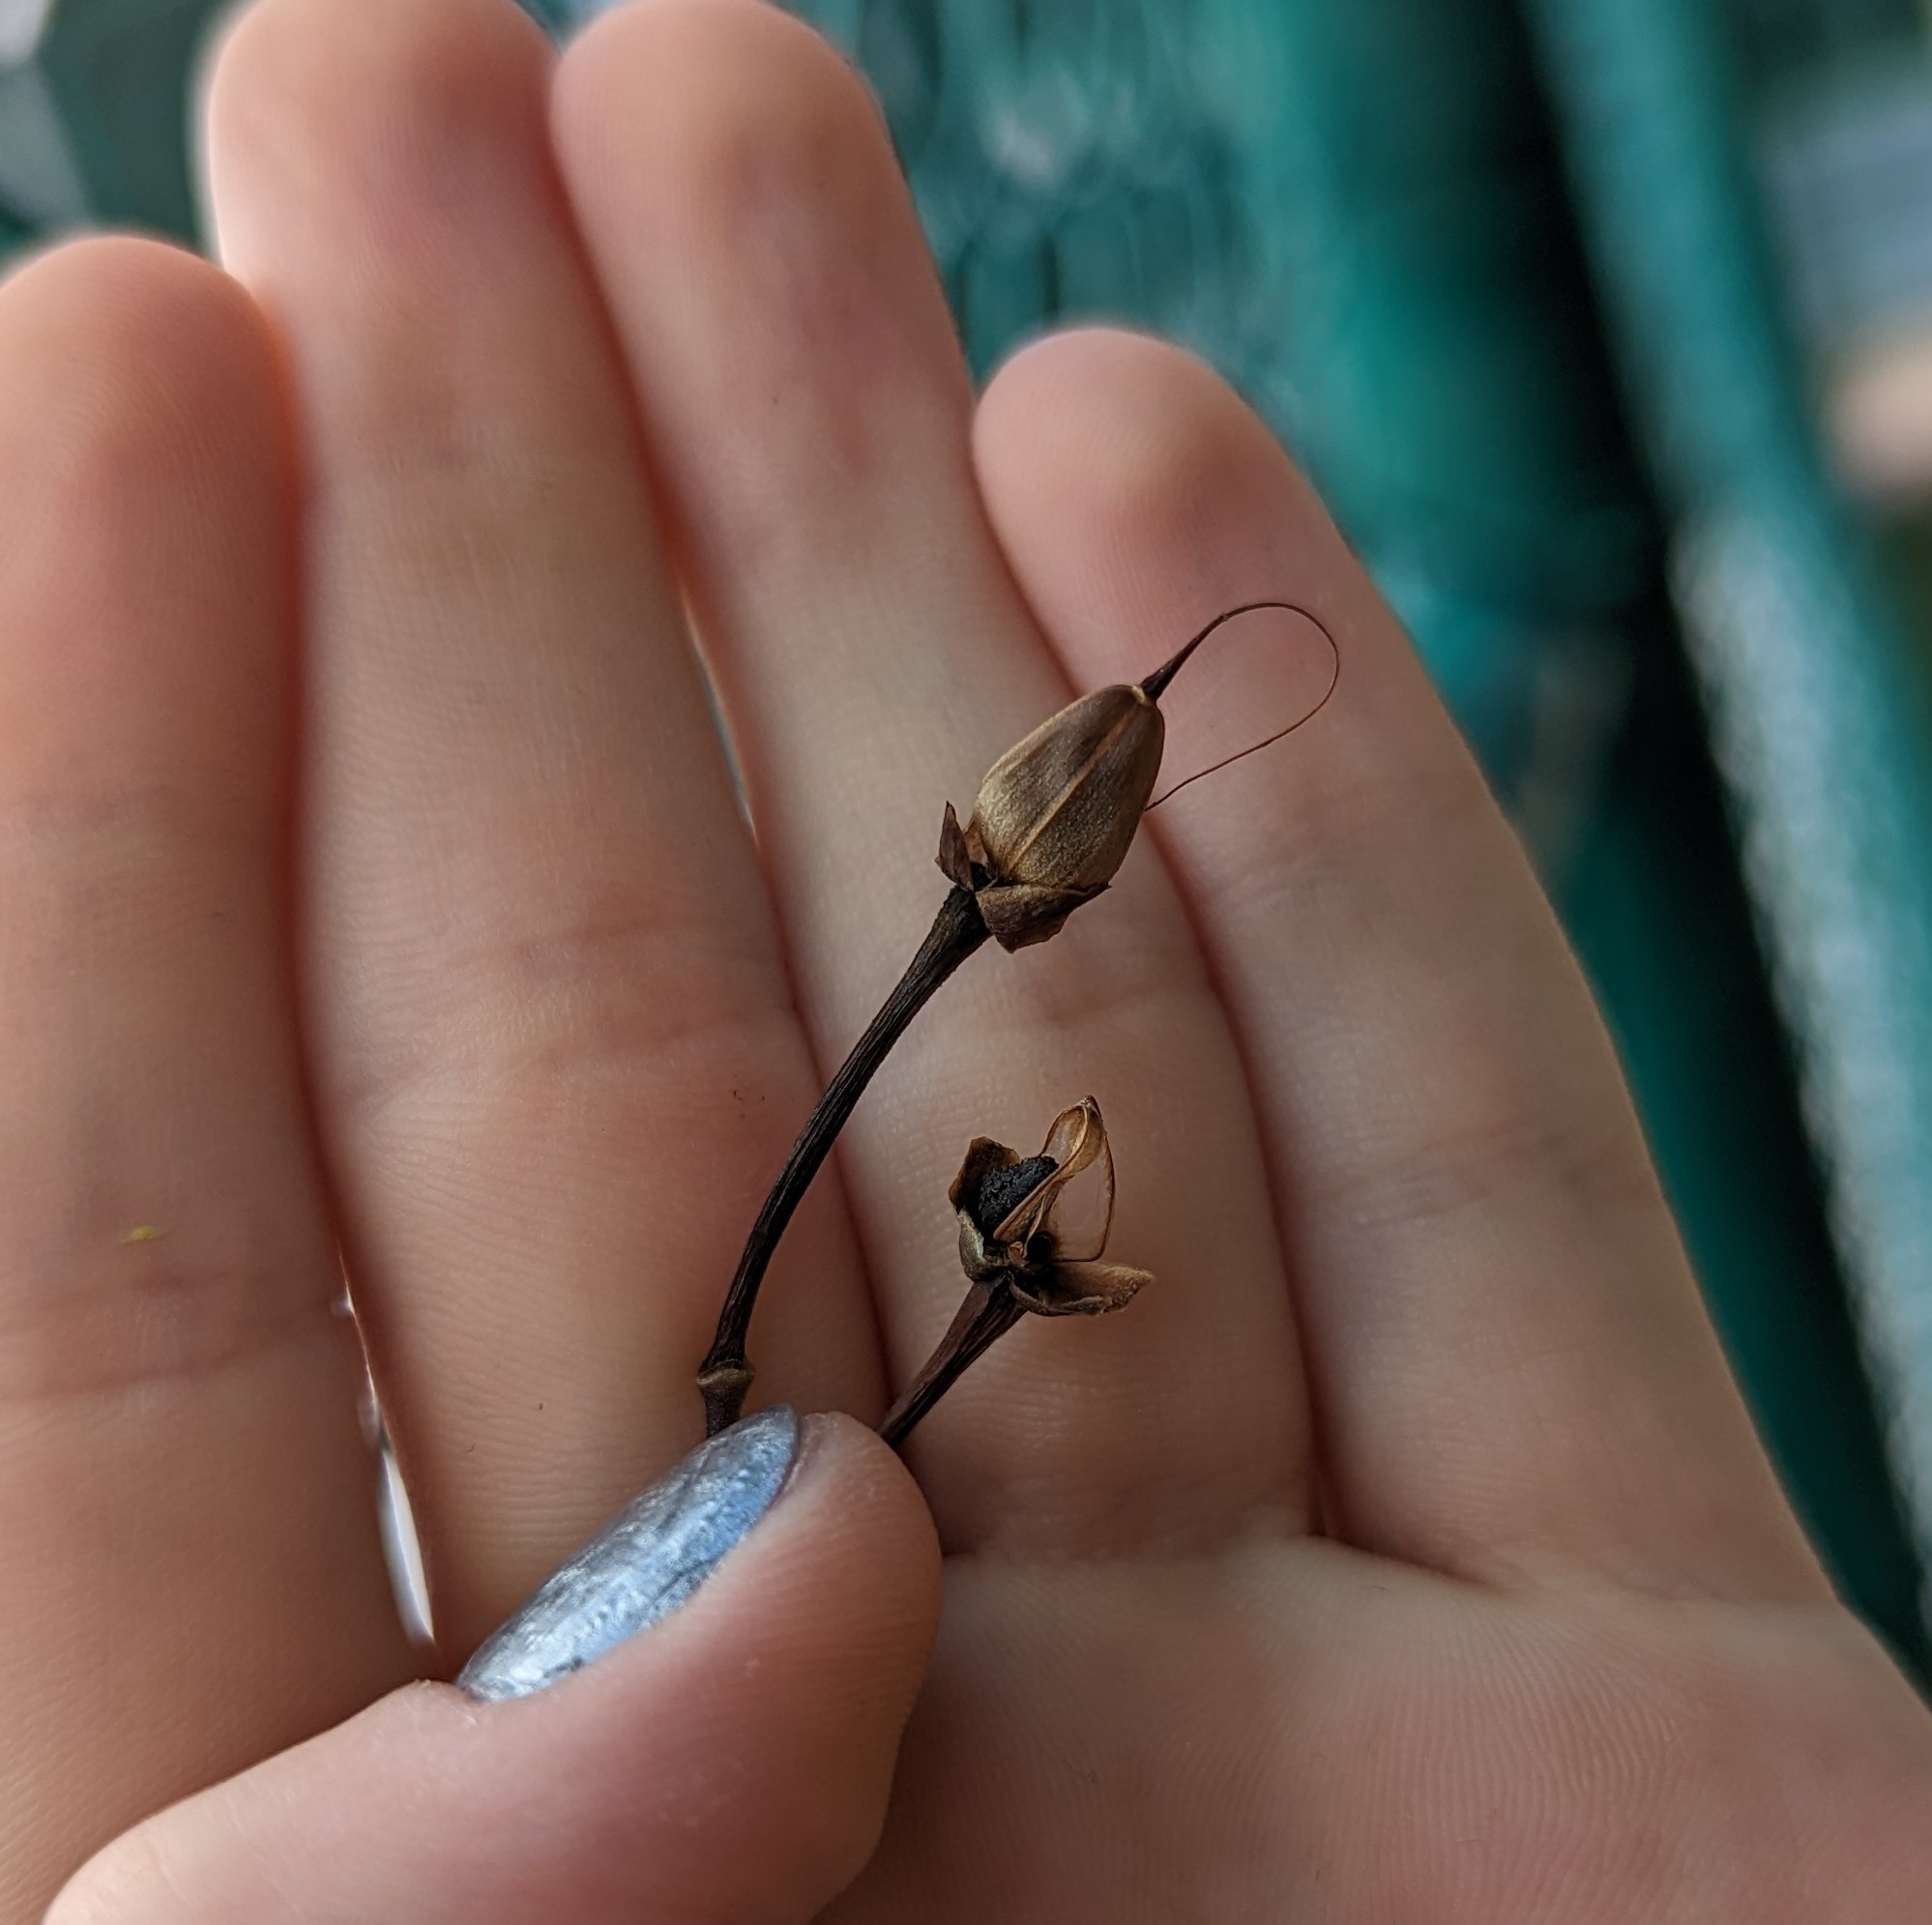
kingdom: Plantae
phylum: Tracheophyta
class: Magnoliopsida
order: Solanales
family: Convolvulaceae
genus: Ipomoea
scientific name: Ipomoea quamoclit
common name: Cypress vine
